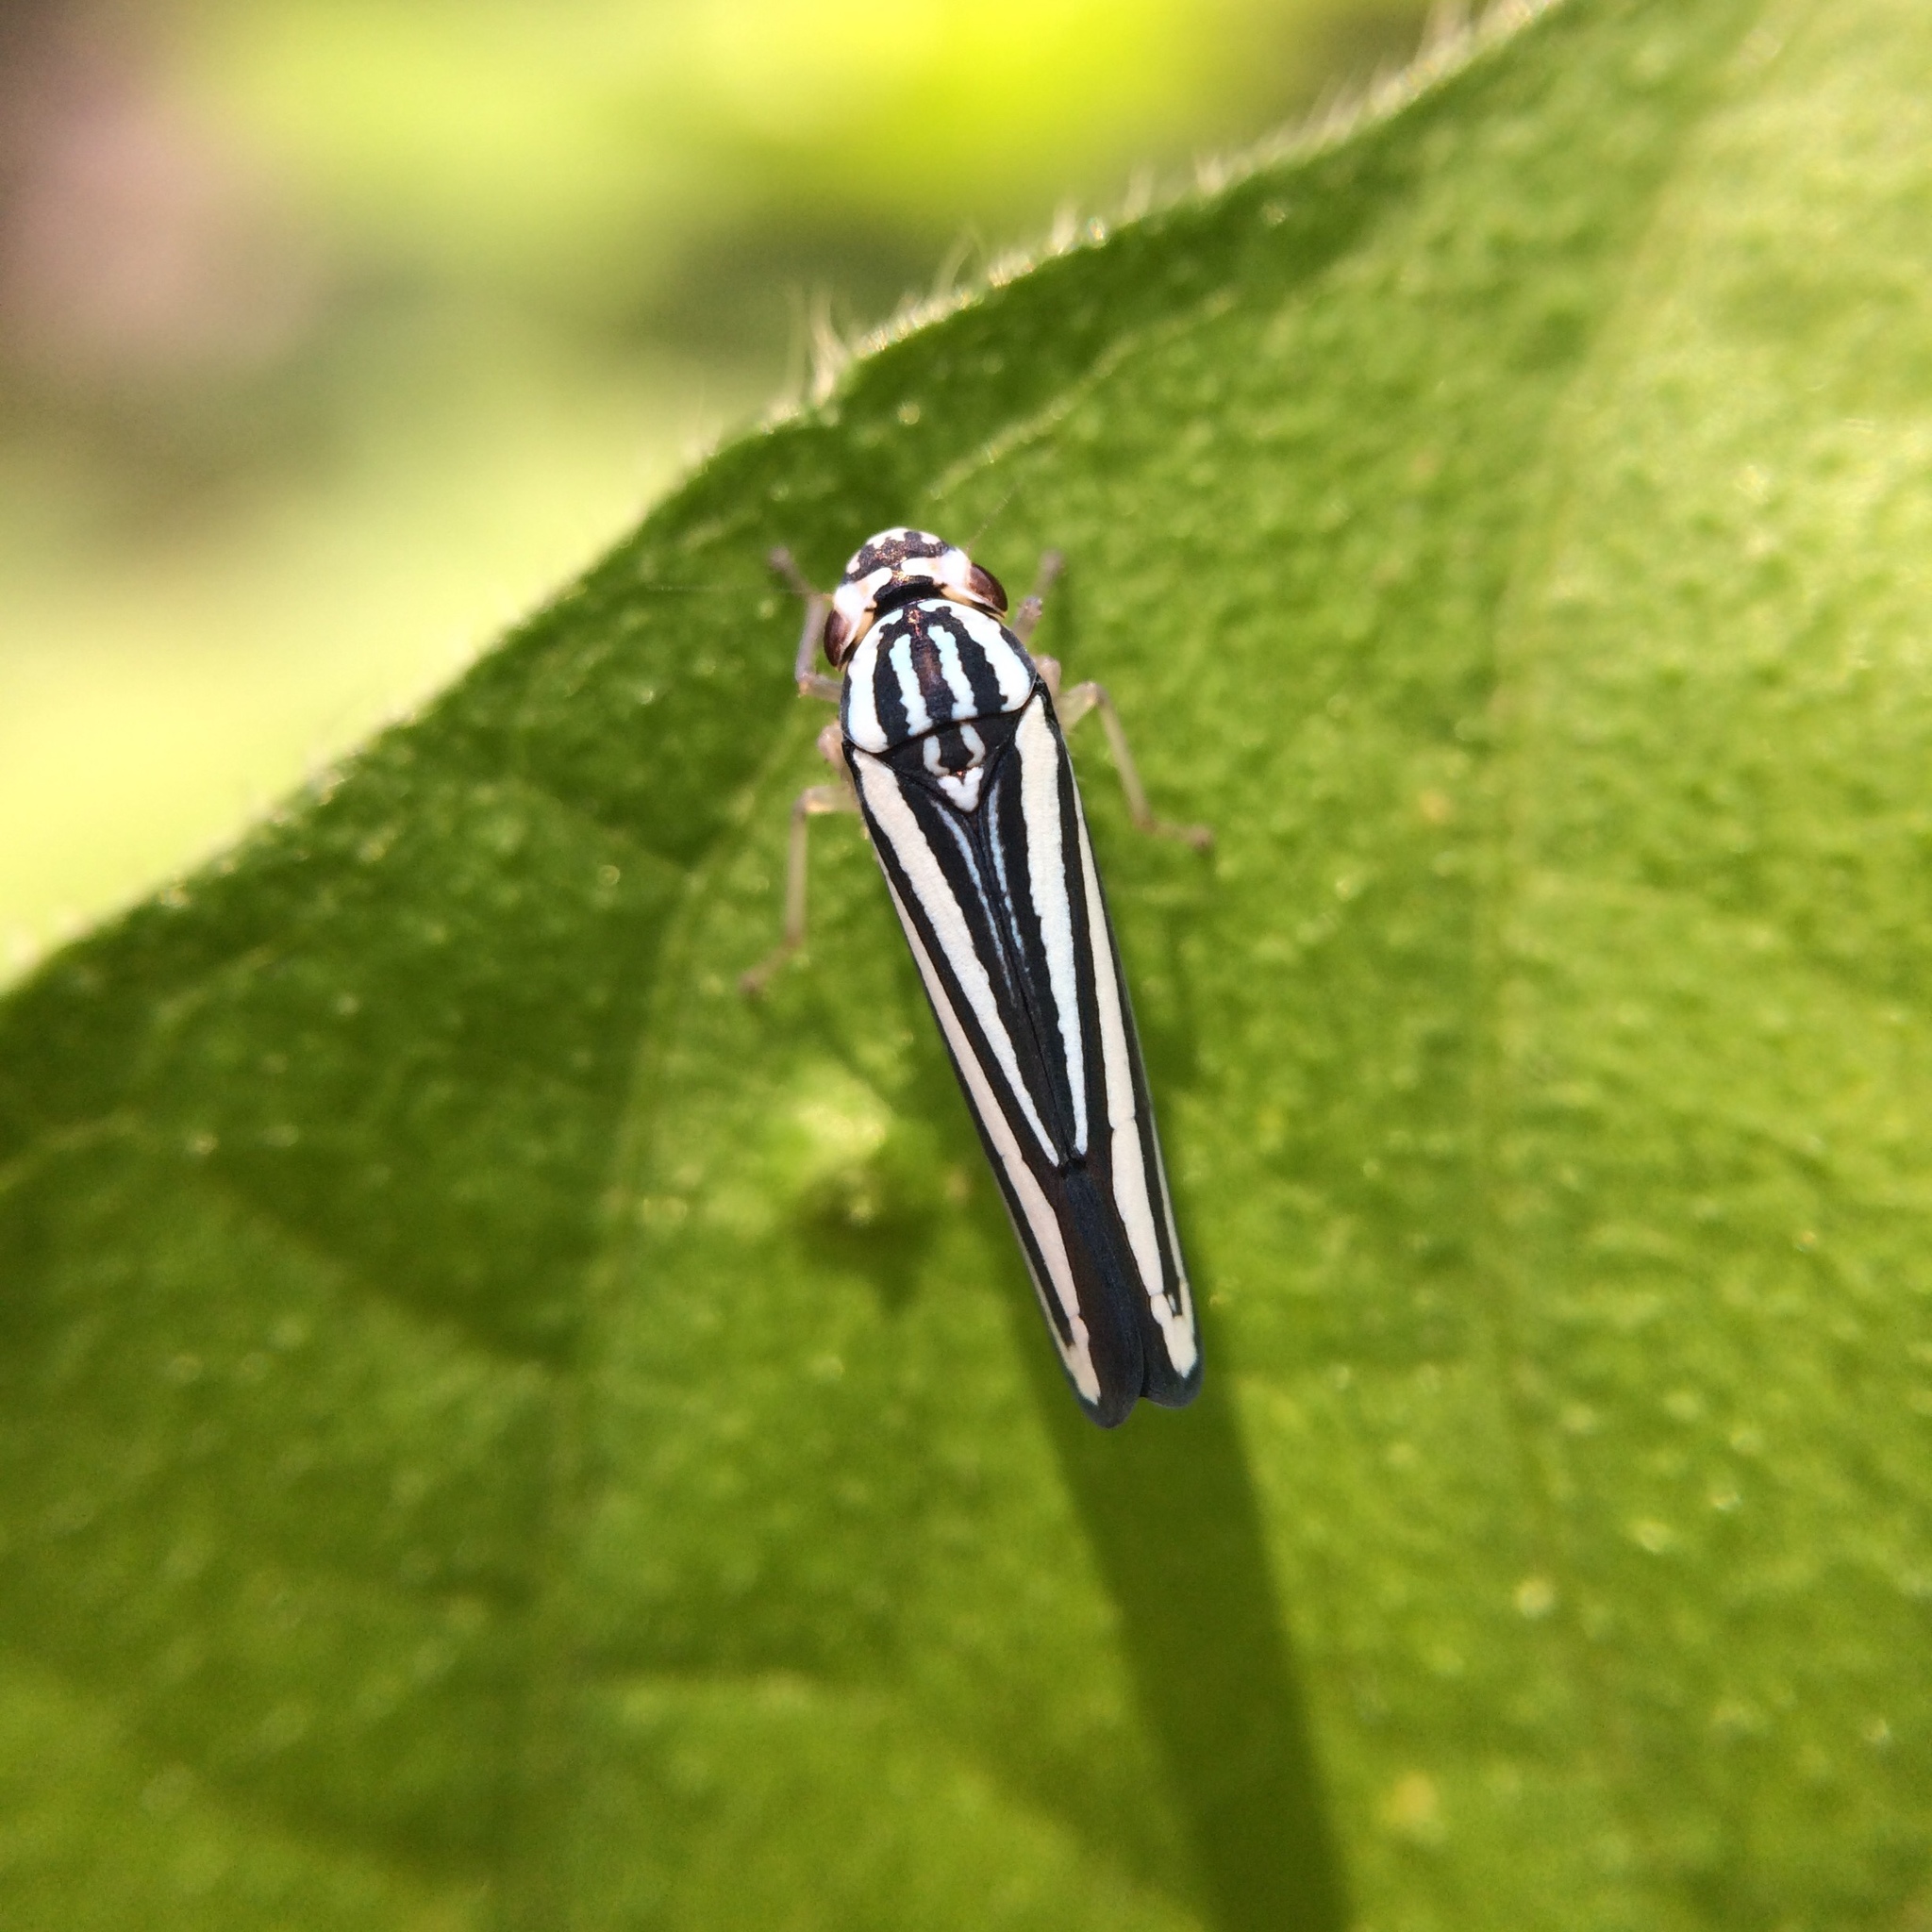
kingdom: Animalia
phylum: Arthropoda
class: Insecta
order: Hemiptera
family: Cicadellidae
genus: Tettigoniella
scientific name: Tettigoniella cosmopolita
